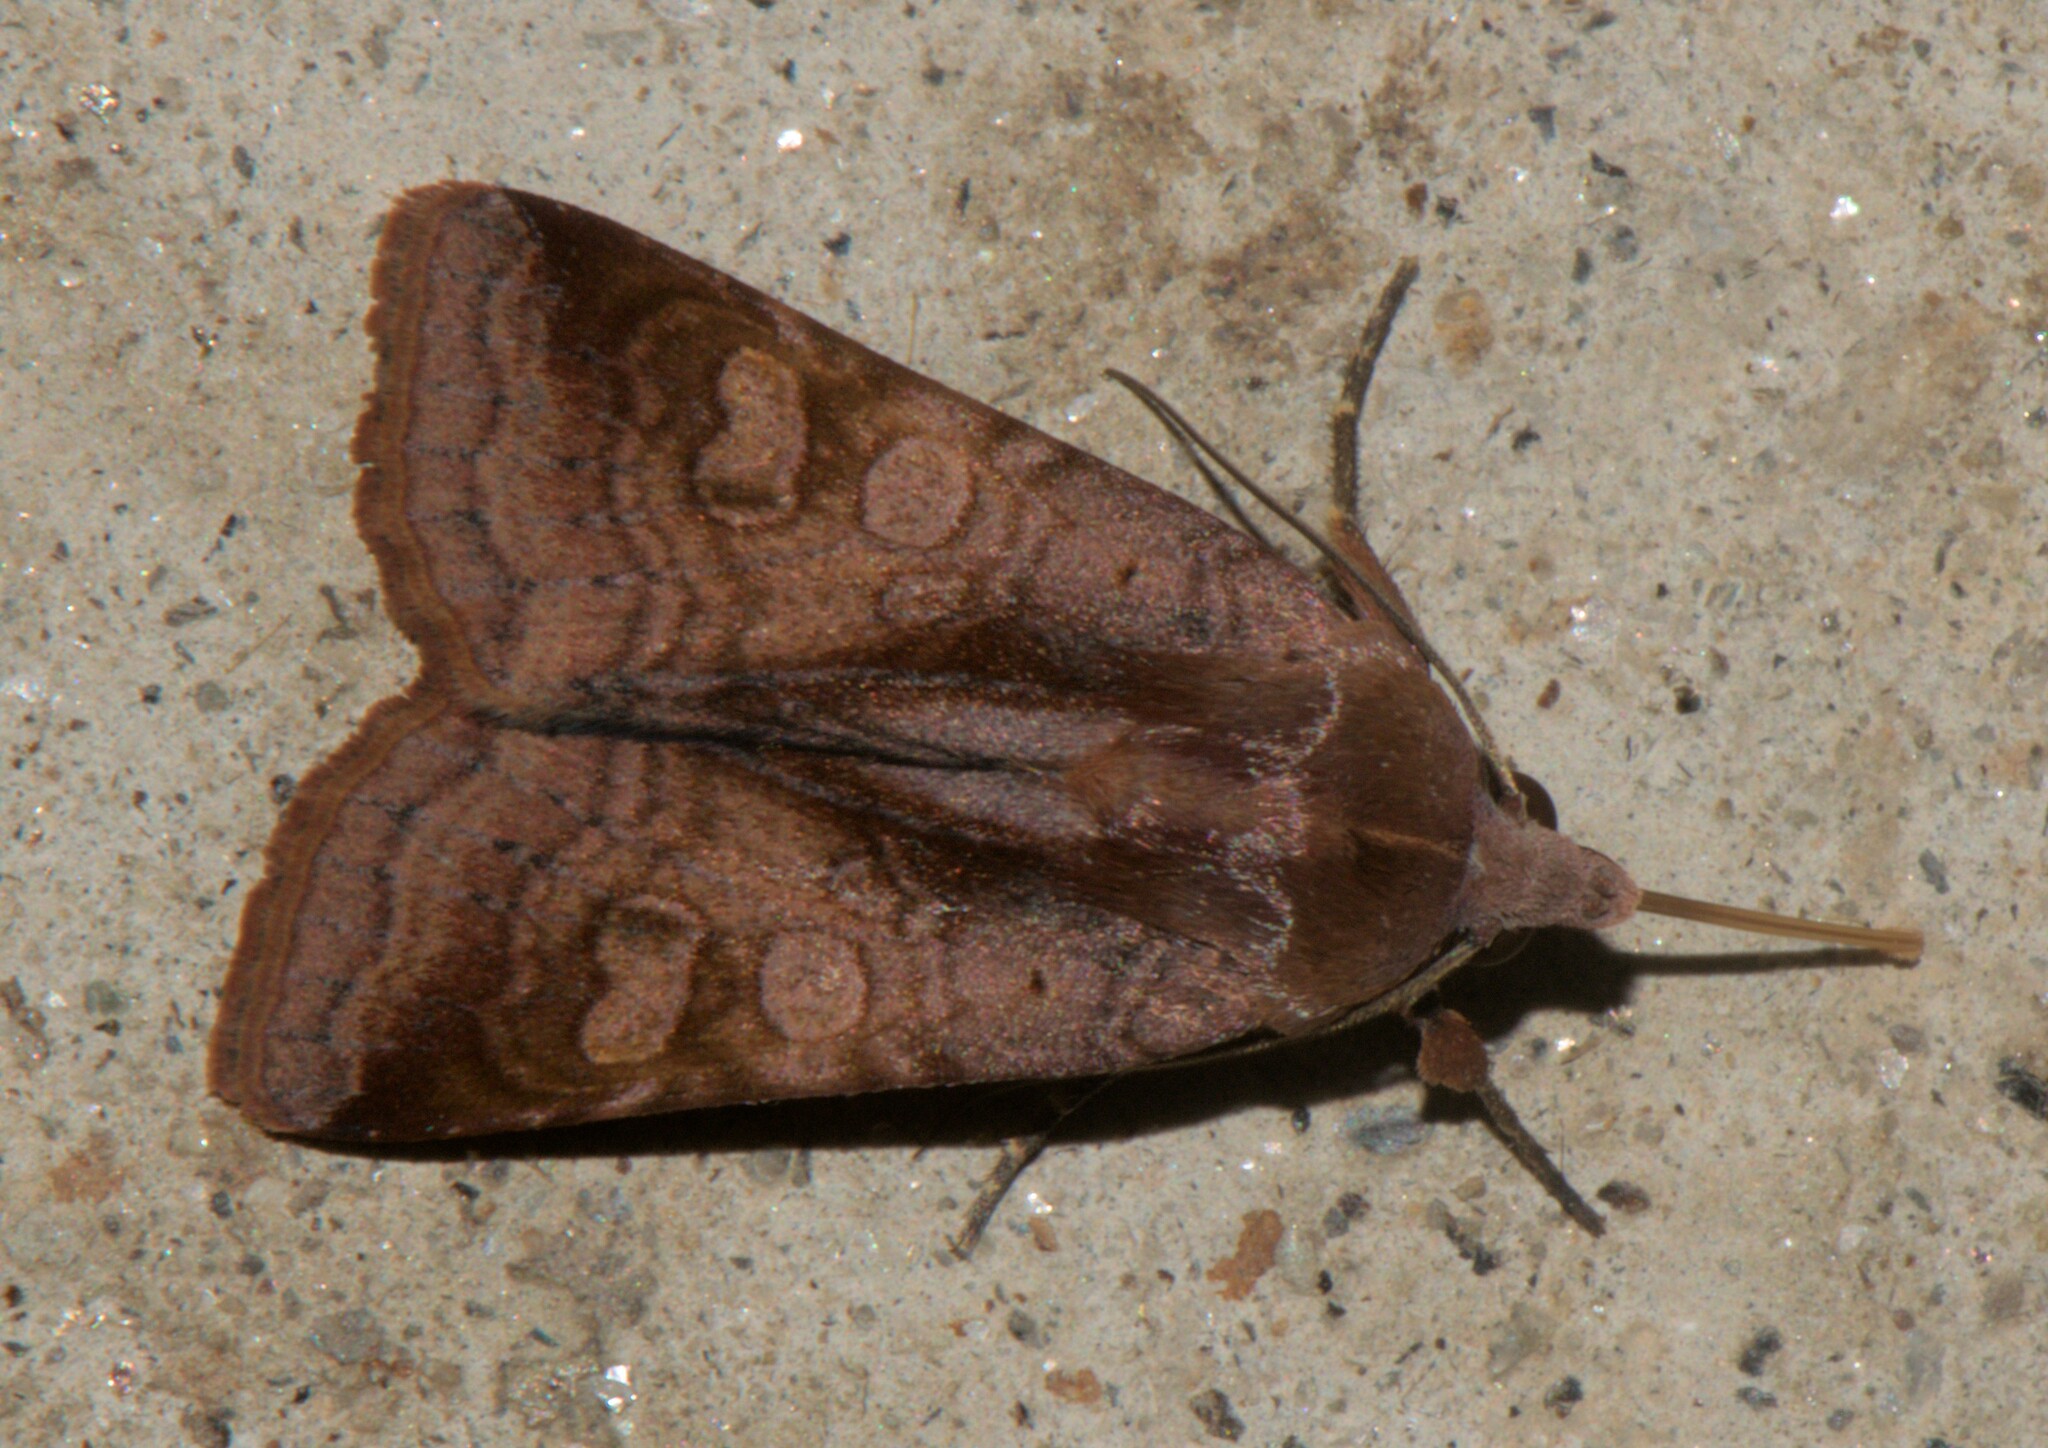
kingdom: Animalia
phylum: Arthropoda
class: Insecta
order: Lepidoptera
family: Noctuidae
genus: Diarsia
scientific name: Diarsia basistriga
